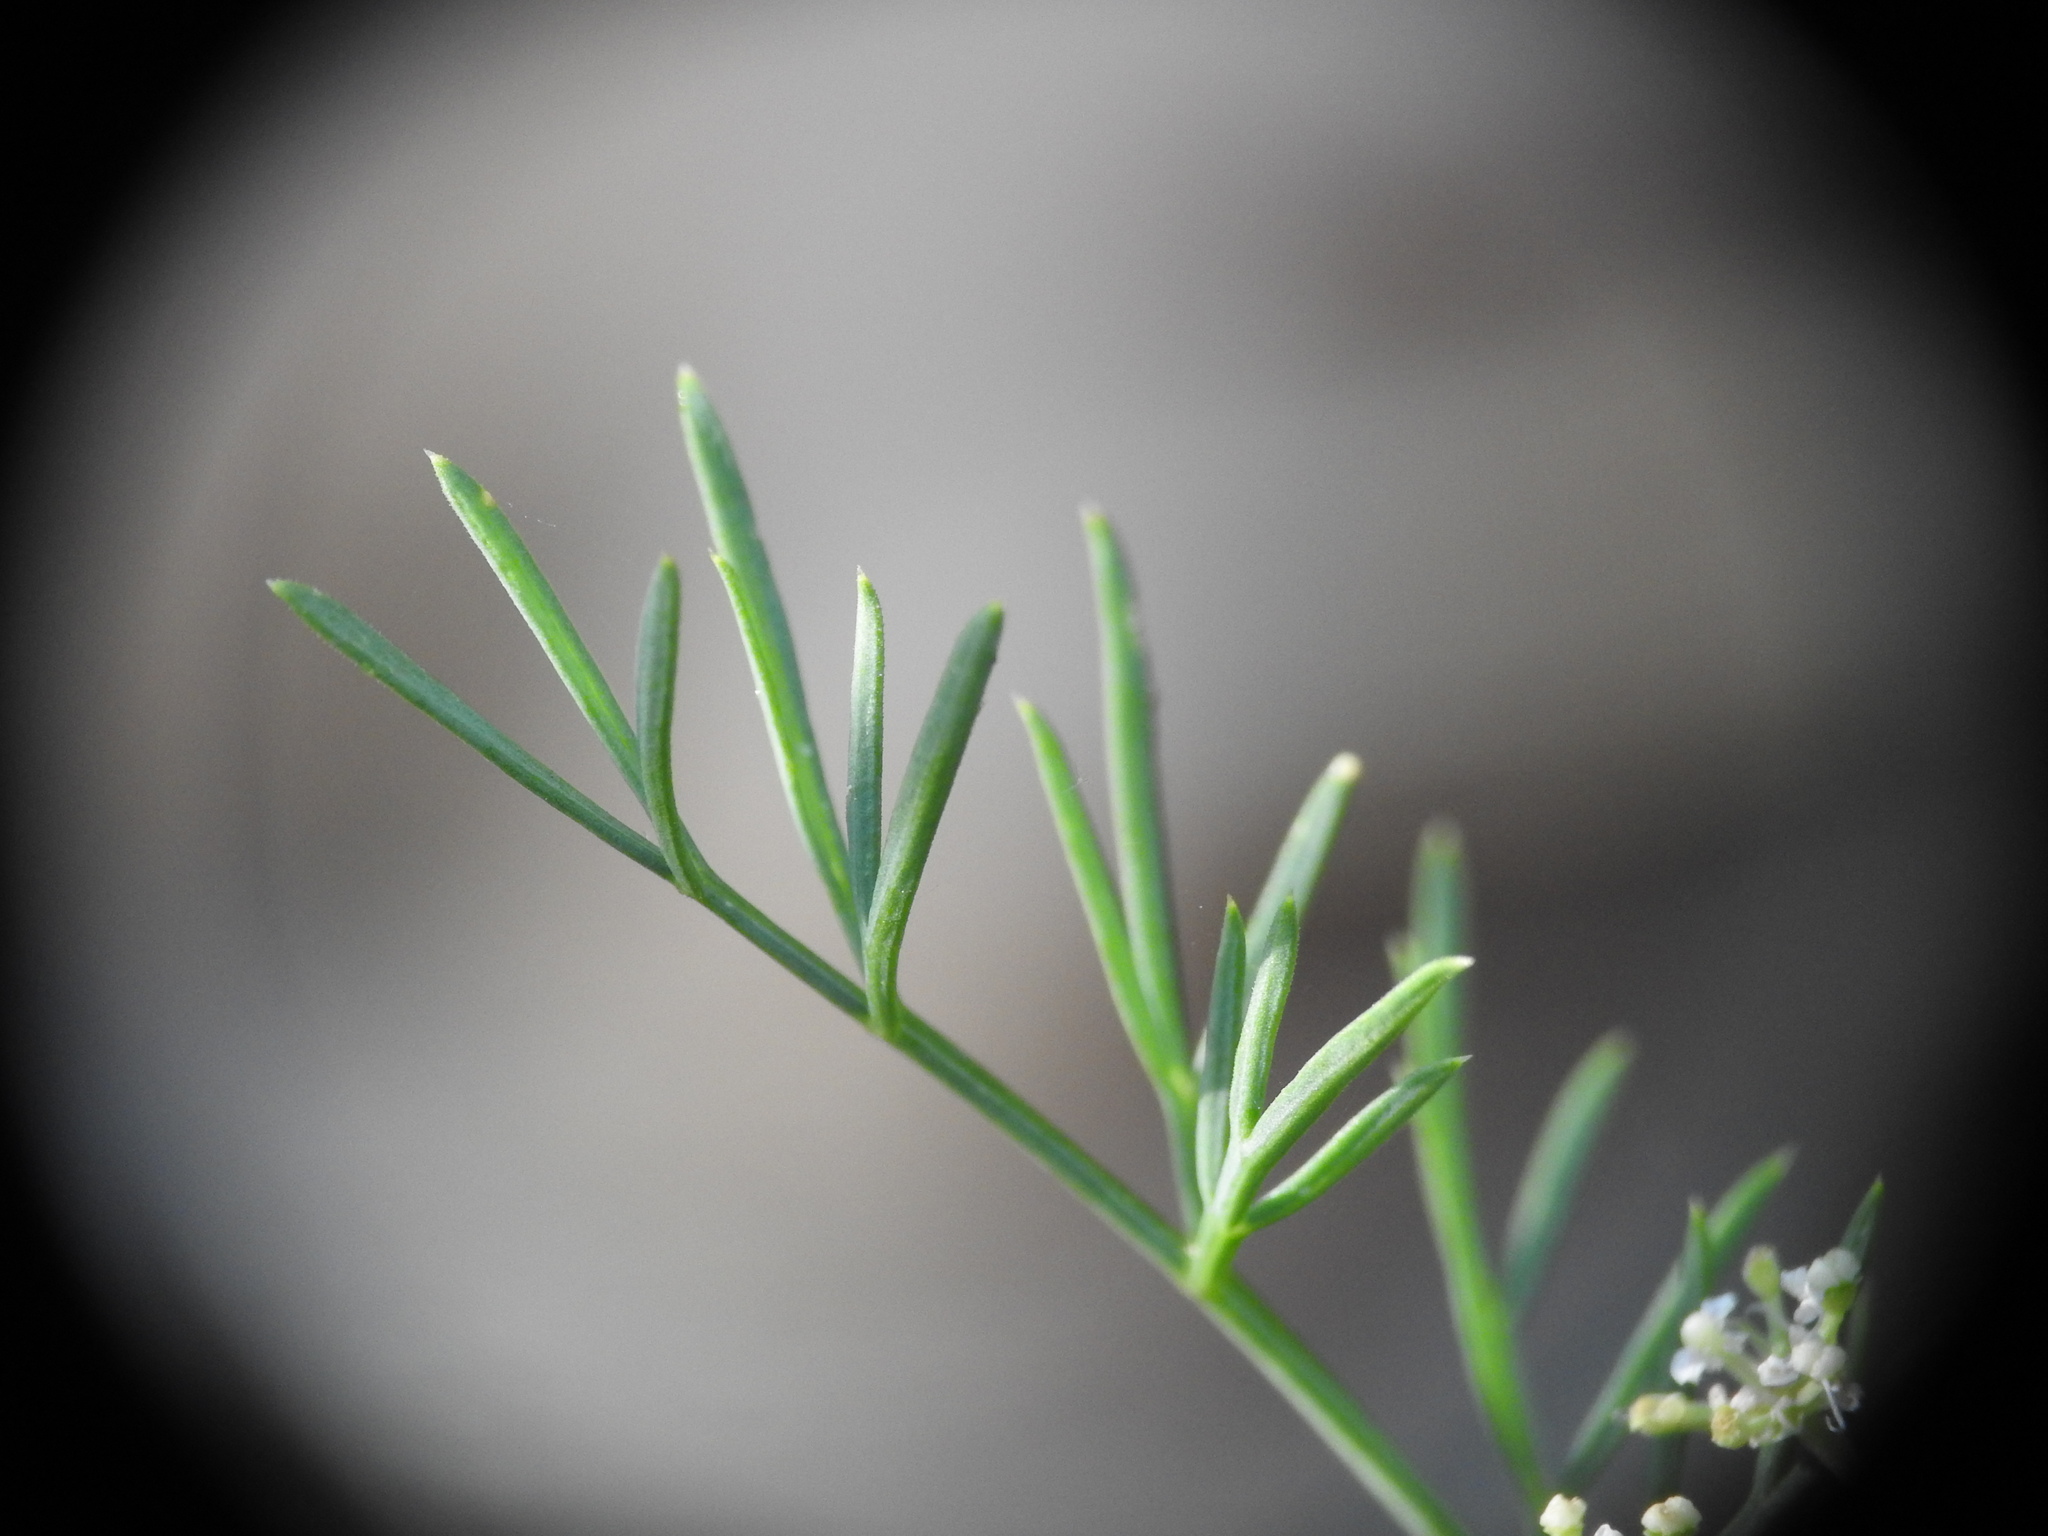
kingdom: Plantae
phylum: Tracheophyta
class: Magnoliopsida
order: Apiales
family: Apiaceae
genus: Seseli
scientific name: Seseli montanum
